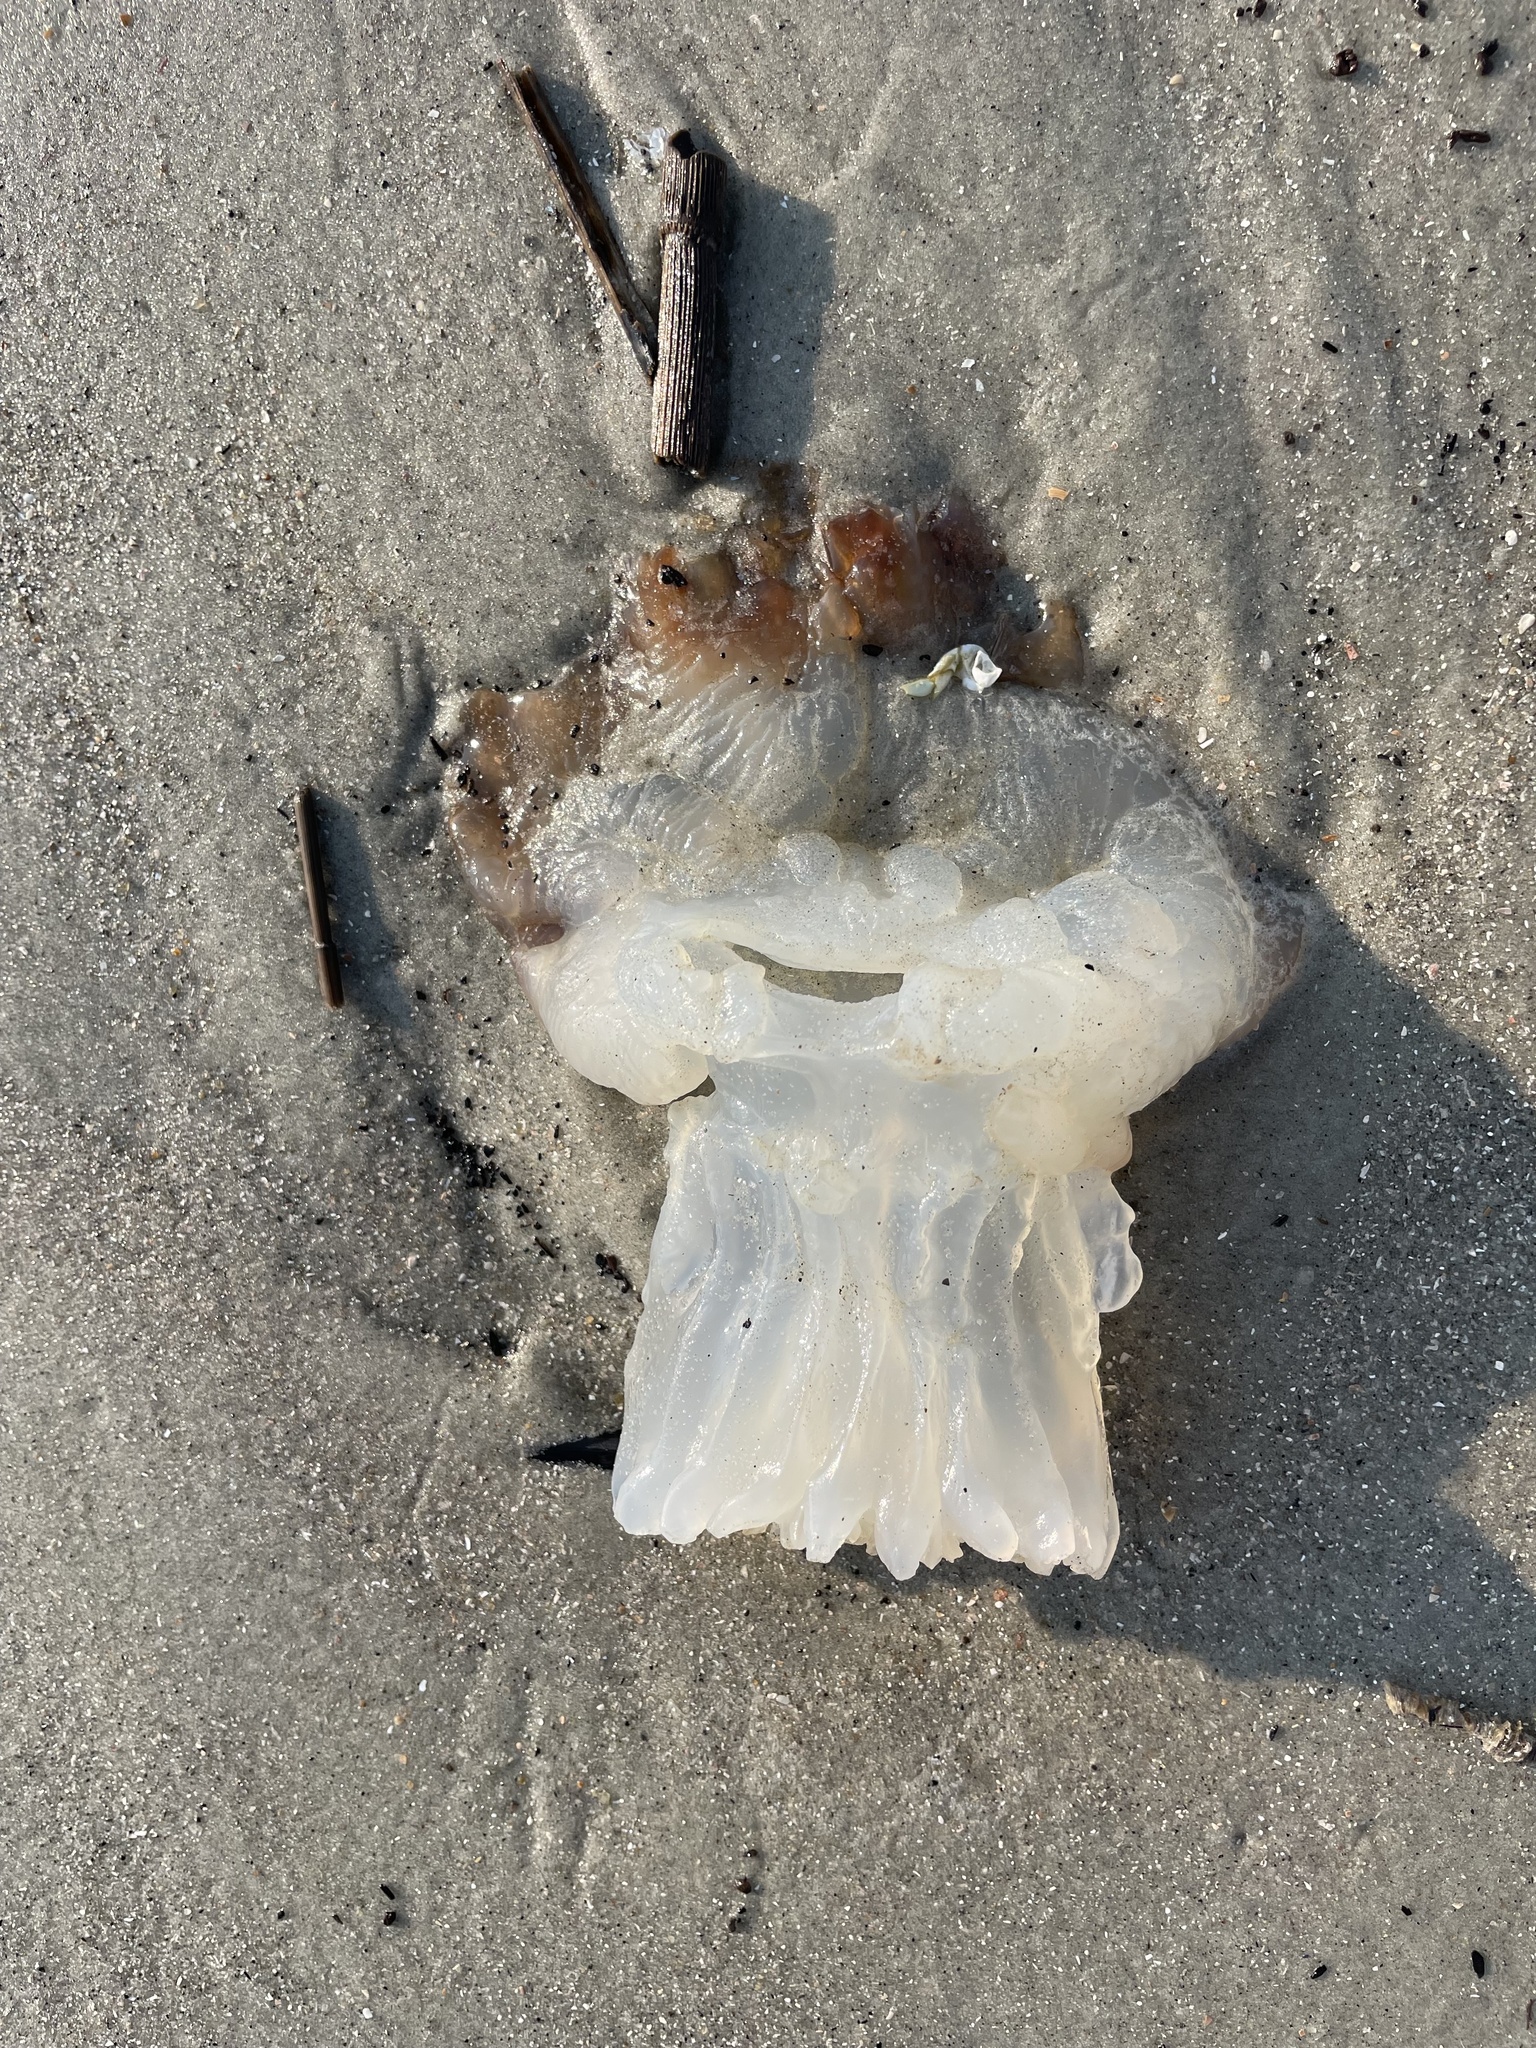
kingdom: Animalia
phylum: Cnidaria
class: Scyphozoa
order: Rhizostomeae
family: Stomolophidae
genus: Stomolophus
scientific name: Stomolophus meleagris
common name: Cabbagehead
